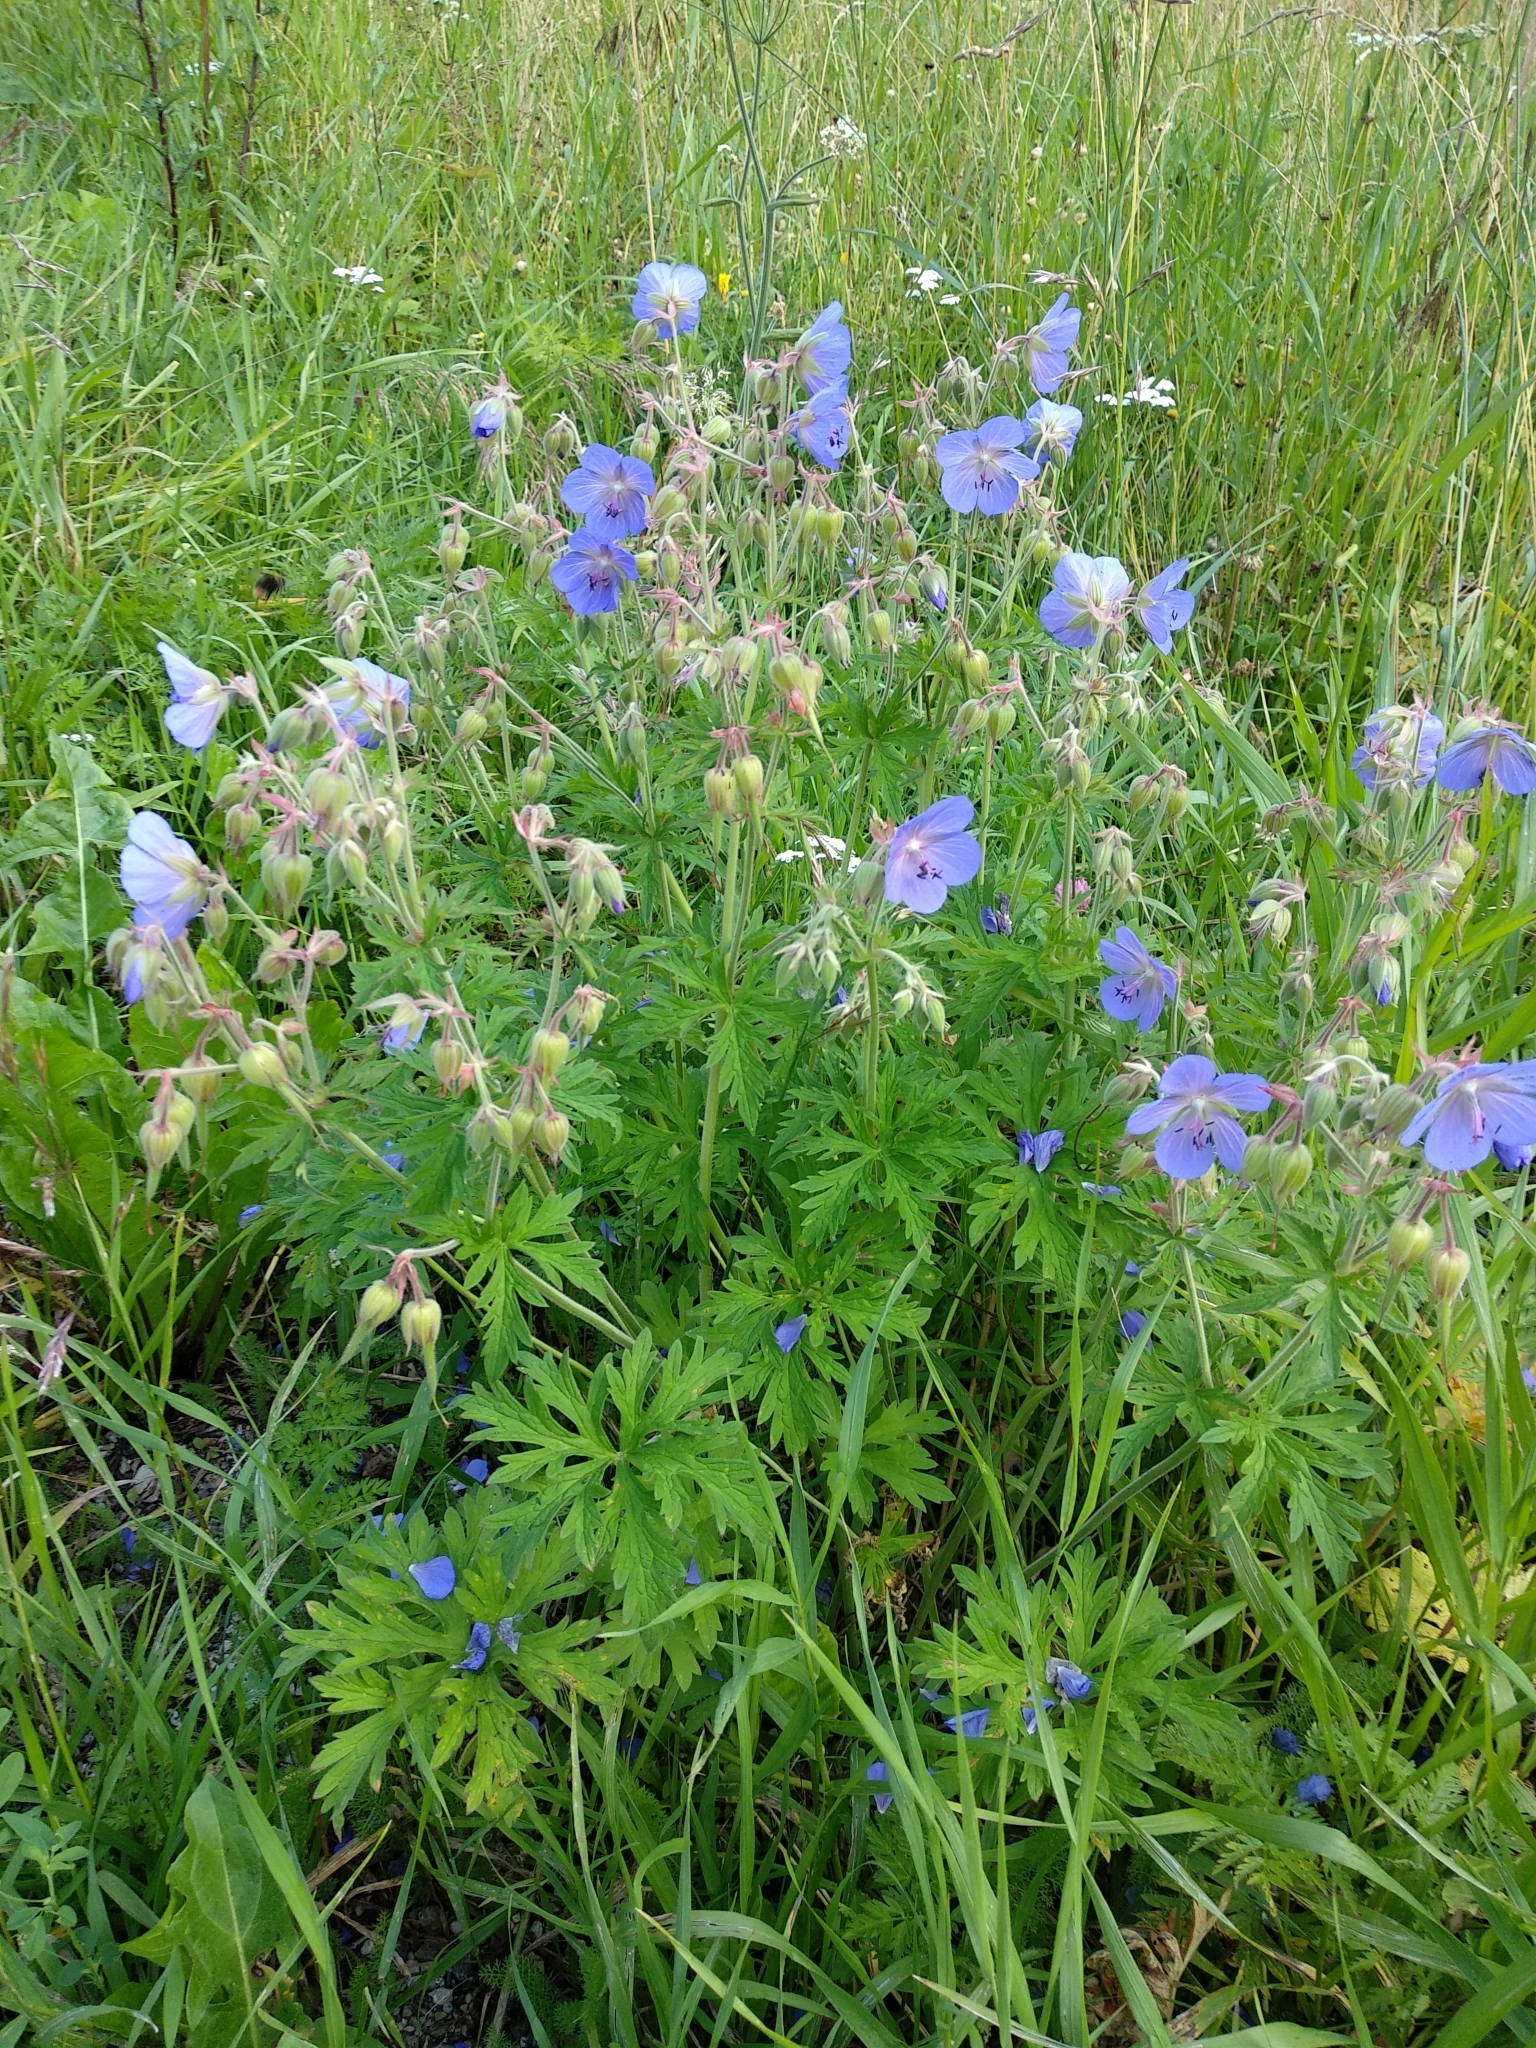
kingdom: Plantae
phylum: Tracheophyta
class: Magnoliopsida
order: Geraniales
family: Geraniaceae
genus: Geranium
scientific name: Geranium pratense
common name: Meadow crane's-bill
